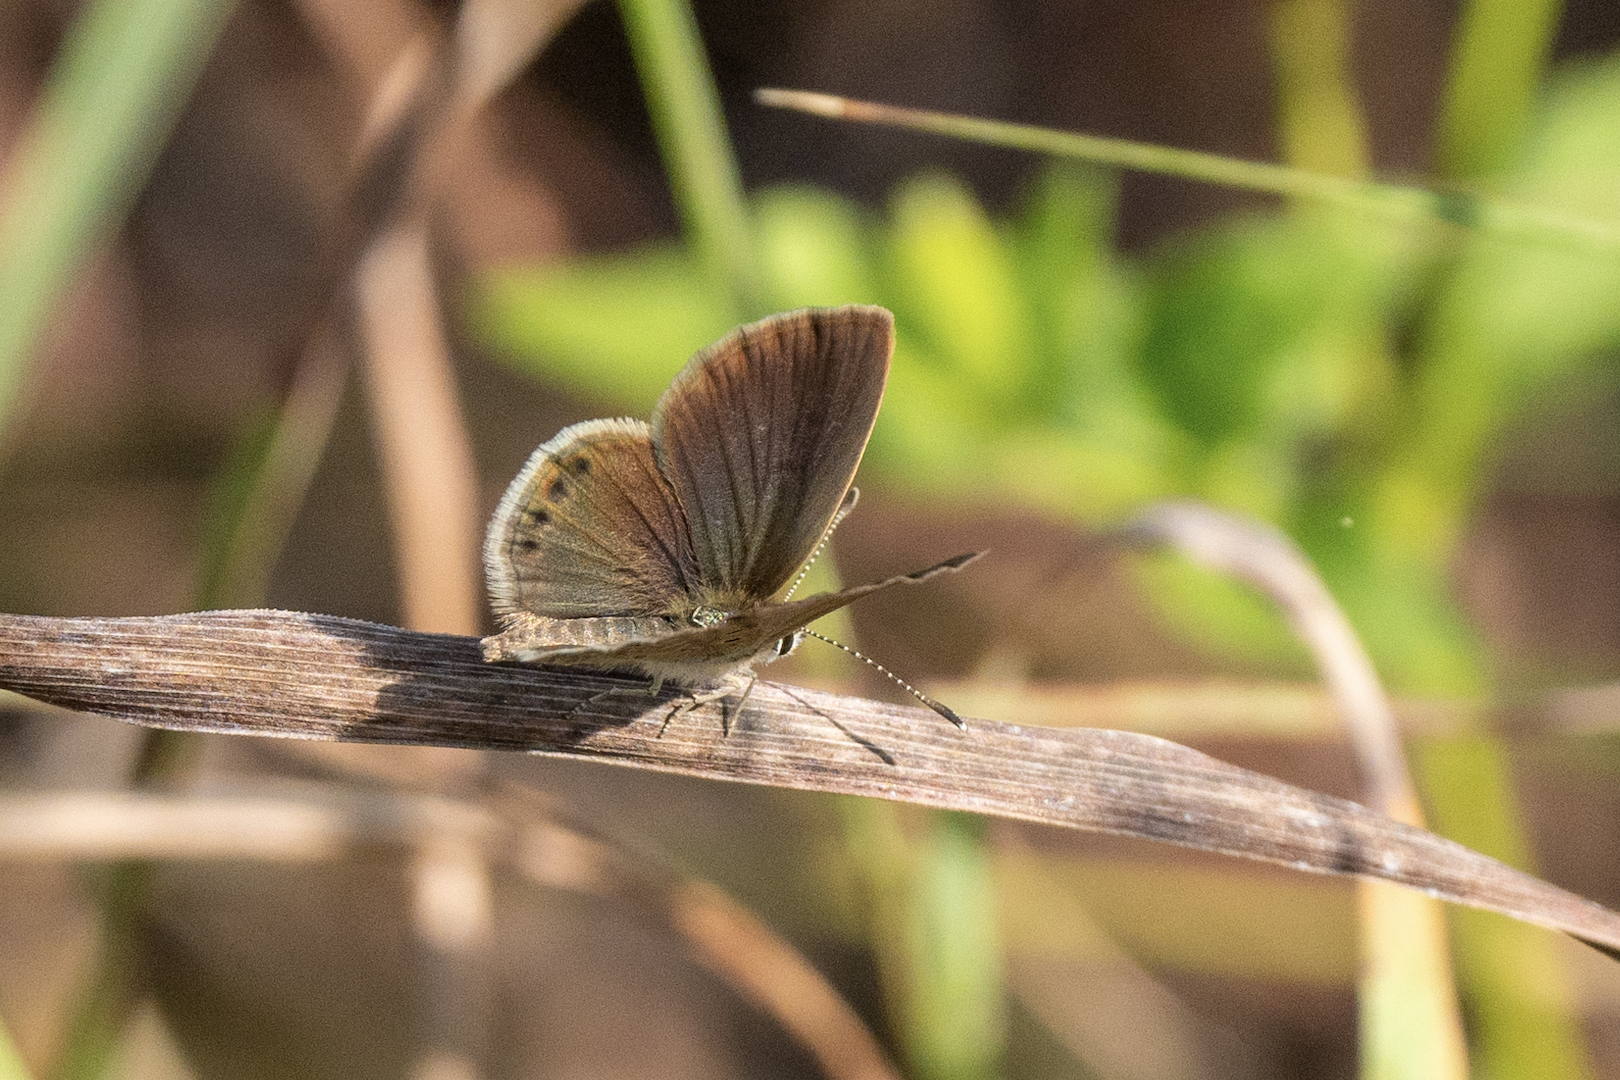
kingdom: Animalia
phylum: Arthropoda
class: Insecta
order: Lepidoptera
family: Lycaenidae
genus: Freyeria
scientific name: Freyeria putli
